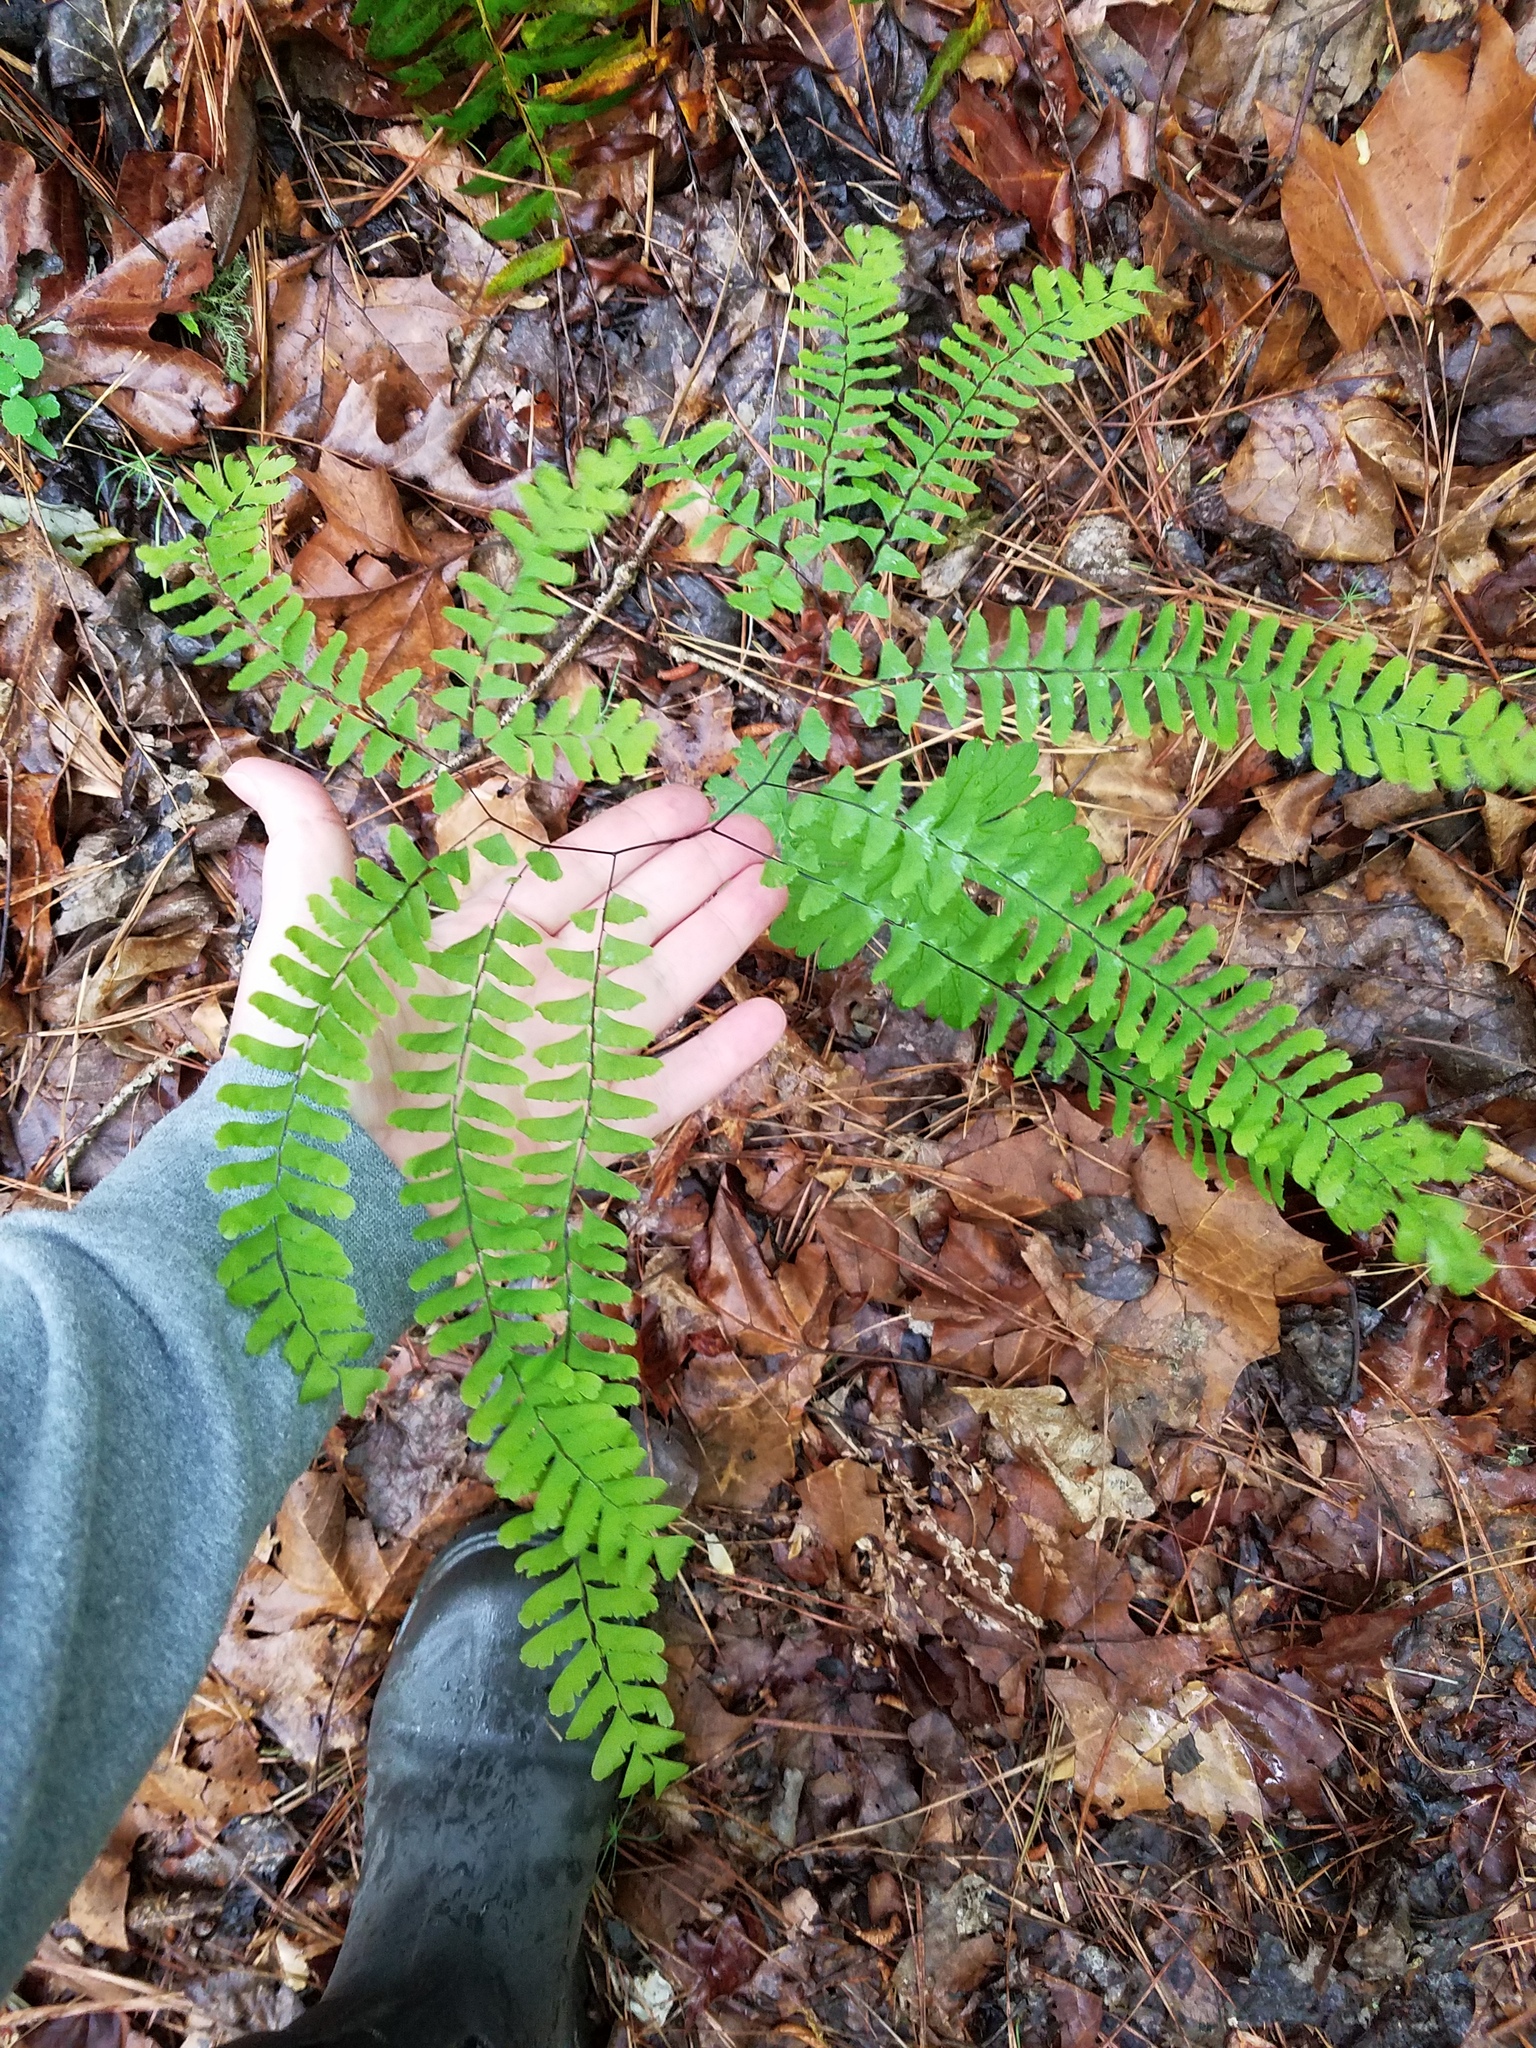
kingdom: Plantae
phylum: Tracheophyta
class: Polypodiopsida
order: Polypodiales
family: Pteridaceae
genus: Adiantum
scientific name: Adiantum pedatum
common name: Five-finger fern
